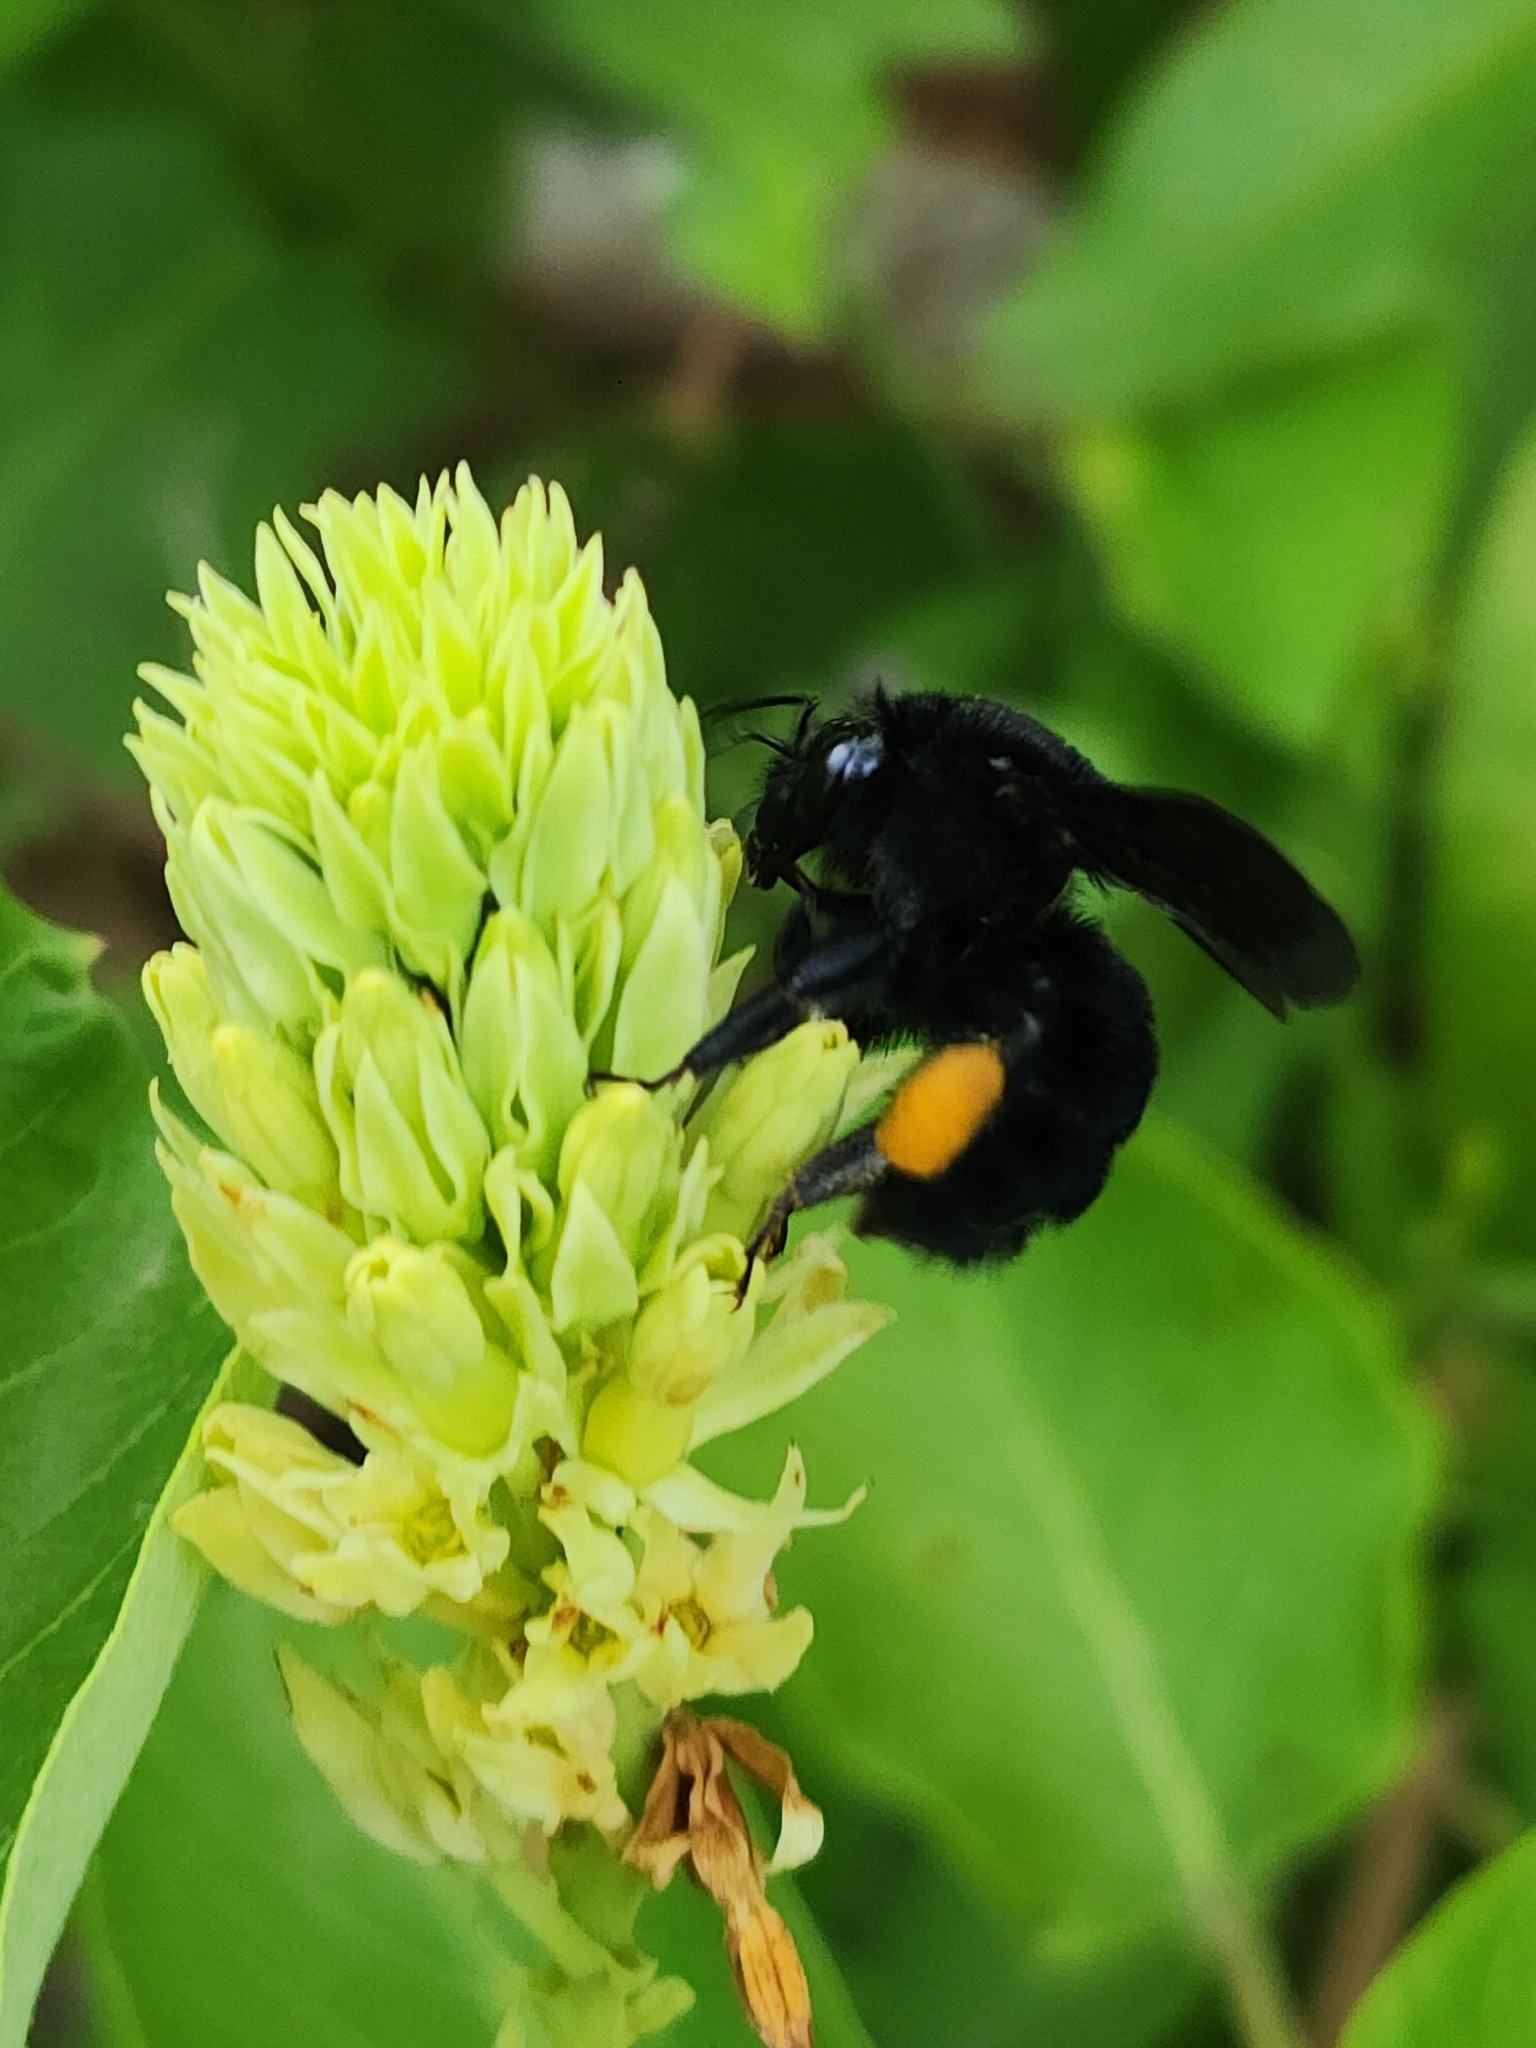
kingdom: Animalia
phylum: Arthropoda
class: Insecta
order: Hymenoptera
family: Apidae
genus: Bombus
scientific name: Bombus pauloensis
